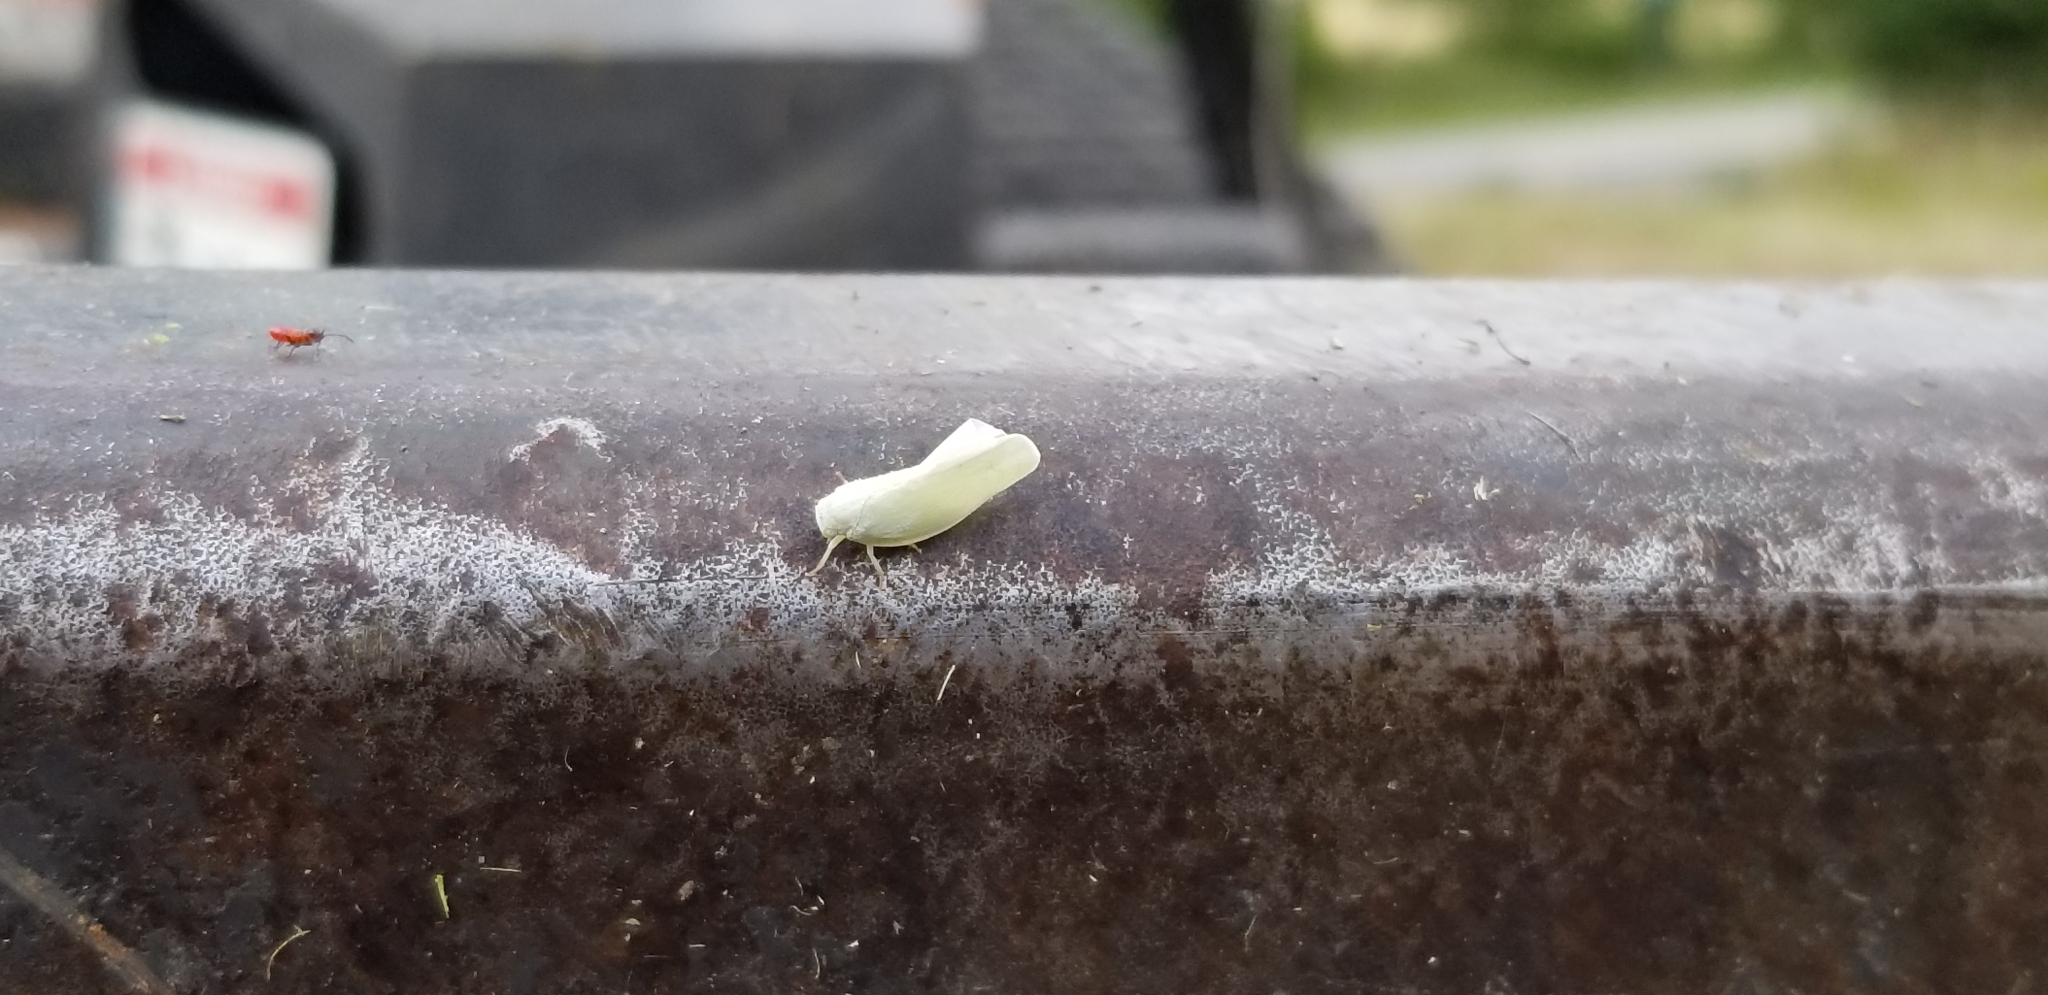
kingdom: Animalia
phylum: Arthropoda
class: Insecta
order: Hemiptera
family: Flatidae
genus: Flatormenis
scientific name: Flatormenis proxima
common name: Northern flatid planthopper
